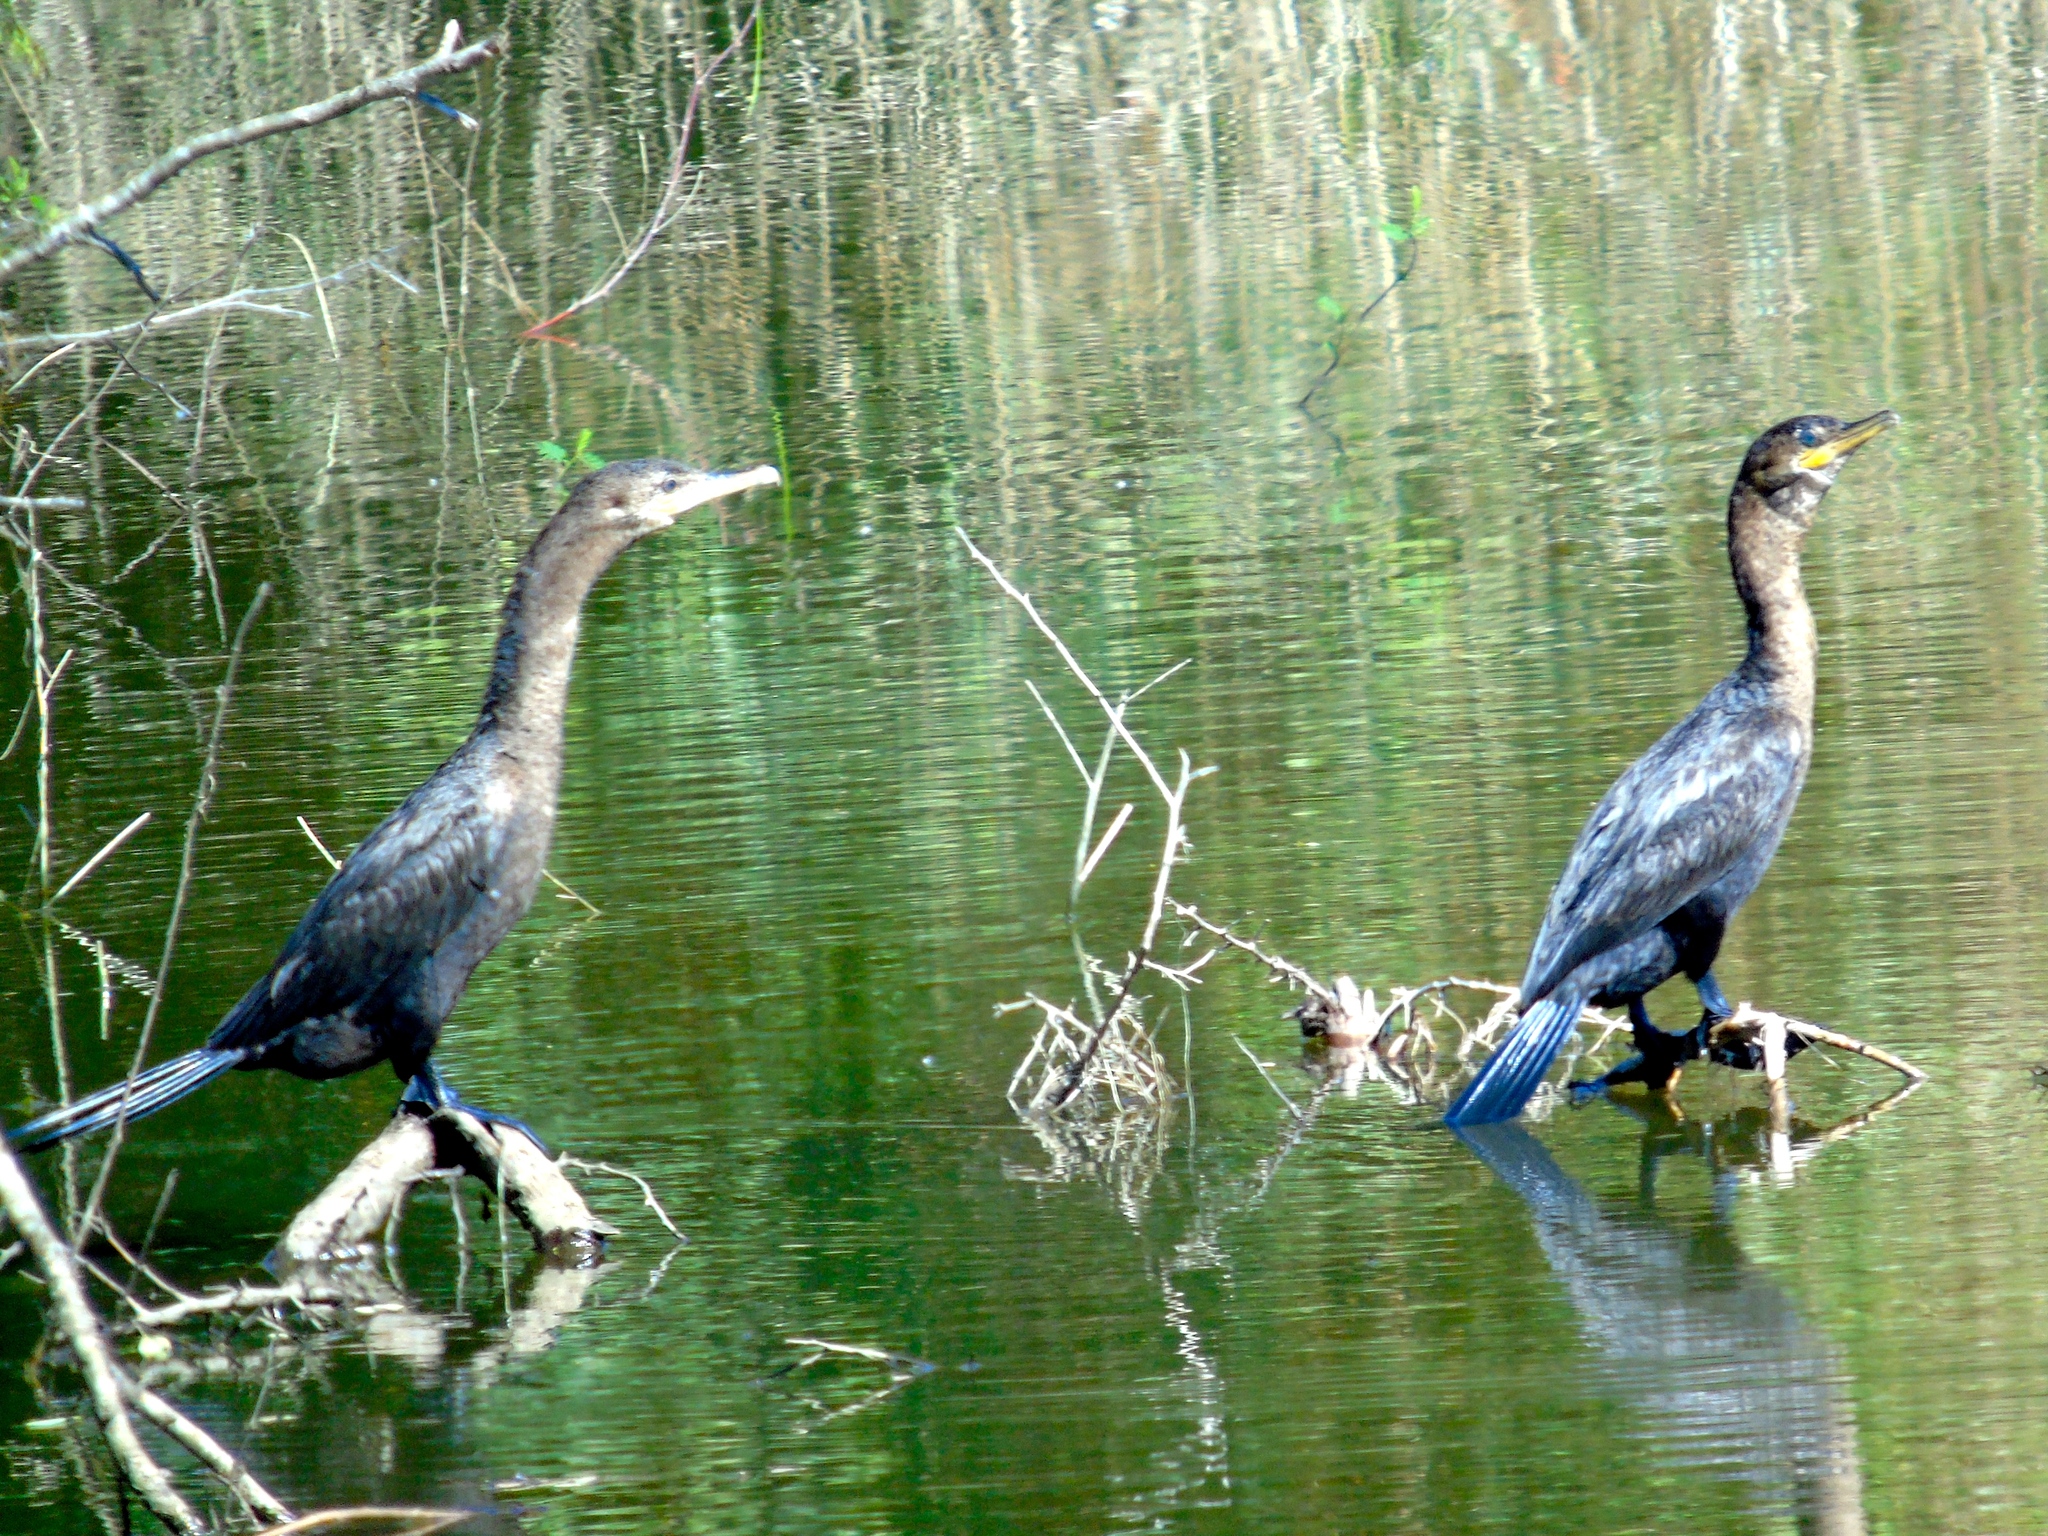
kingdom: Animalia
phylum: Chordata
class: Aves
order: Suliformes
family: Phalacrocoracidae
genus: Phalacrocorax
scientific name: Phalacrocorax brasilianus
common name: Neotropic cormorant
